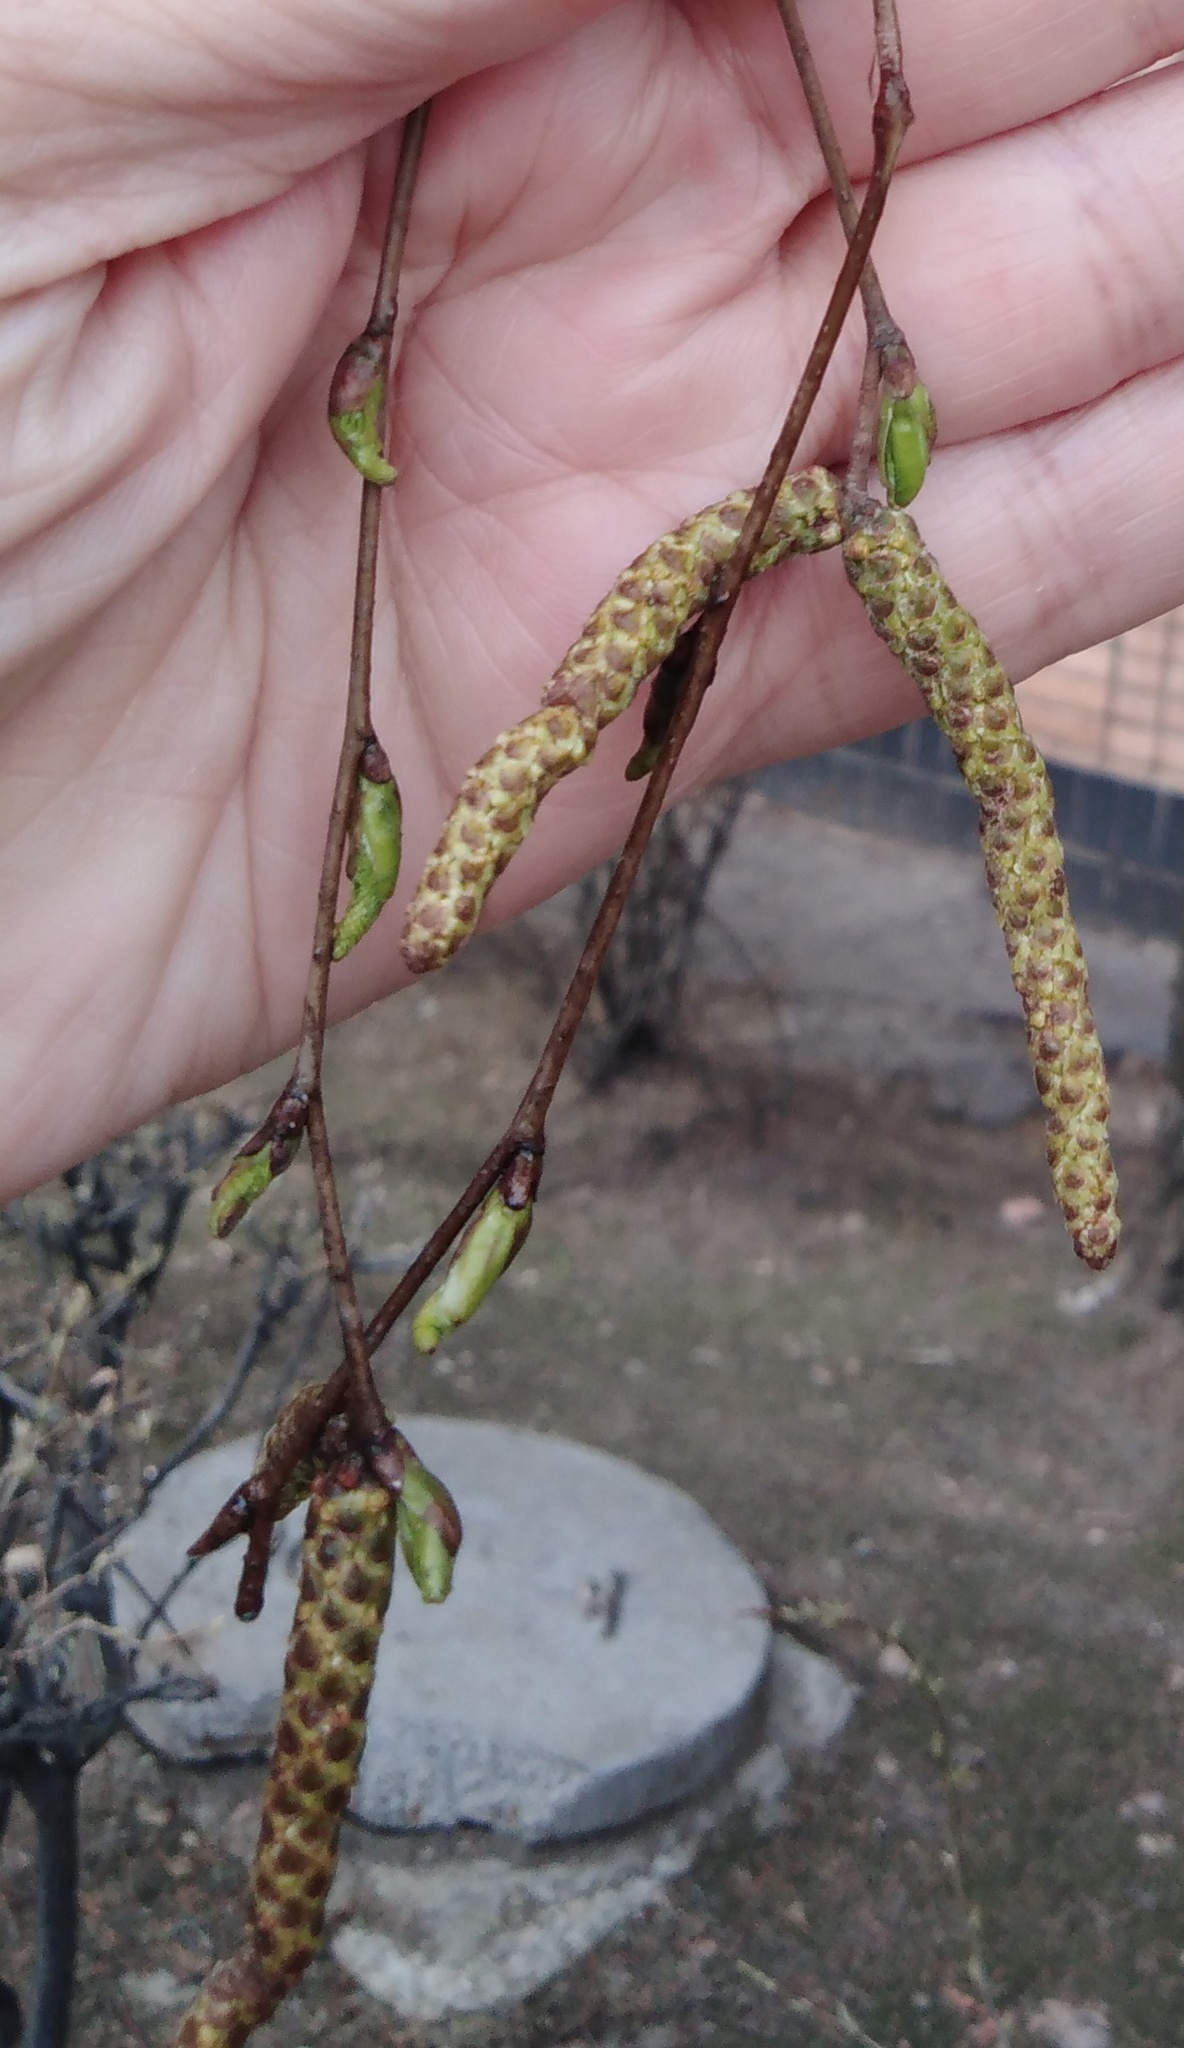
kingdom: Plantae
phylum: Tracheophyta
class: Magnoliopsida
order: Fagales
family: Betulaceae
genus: Betula
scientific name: Betula pendula
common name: Silver birch
